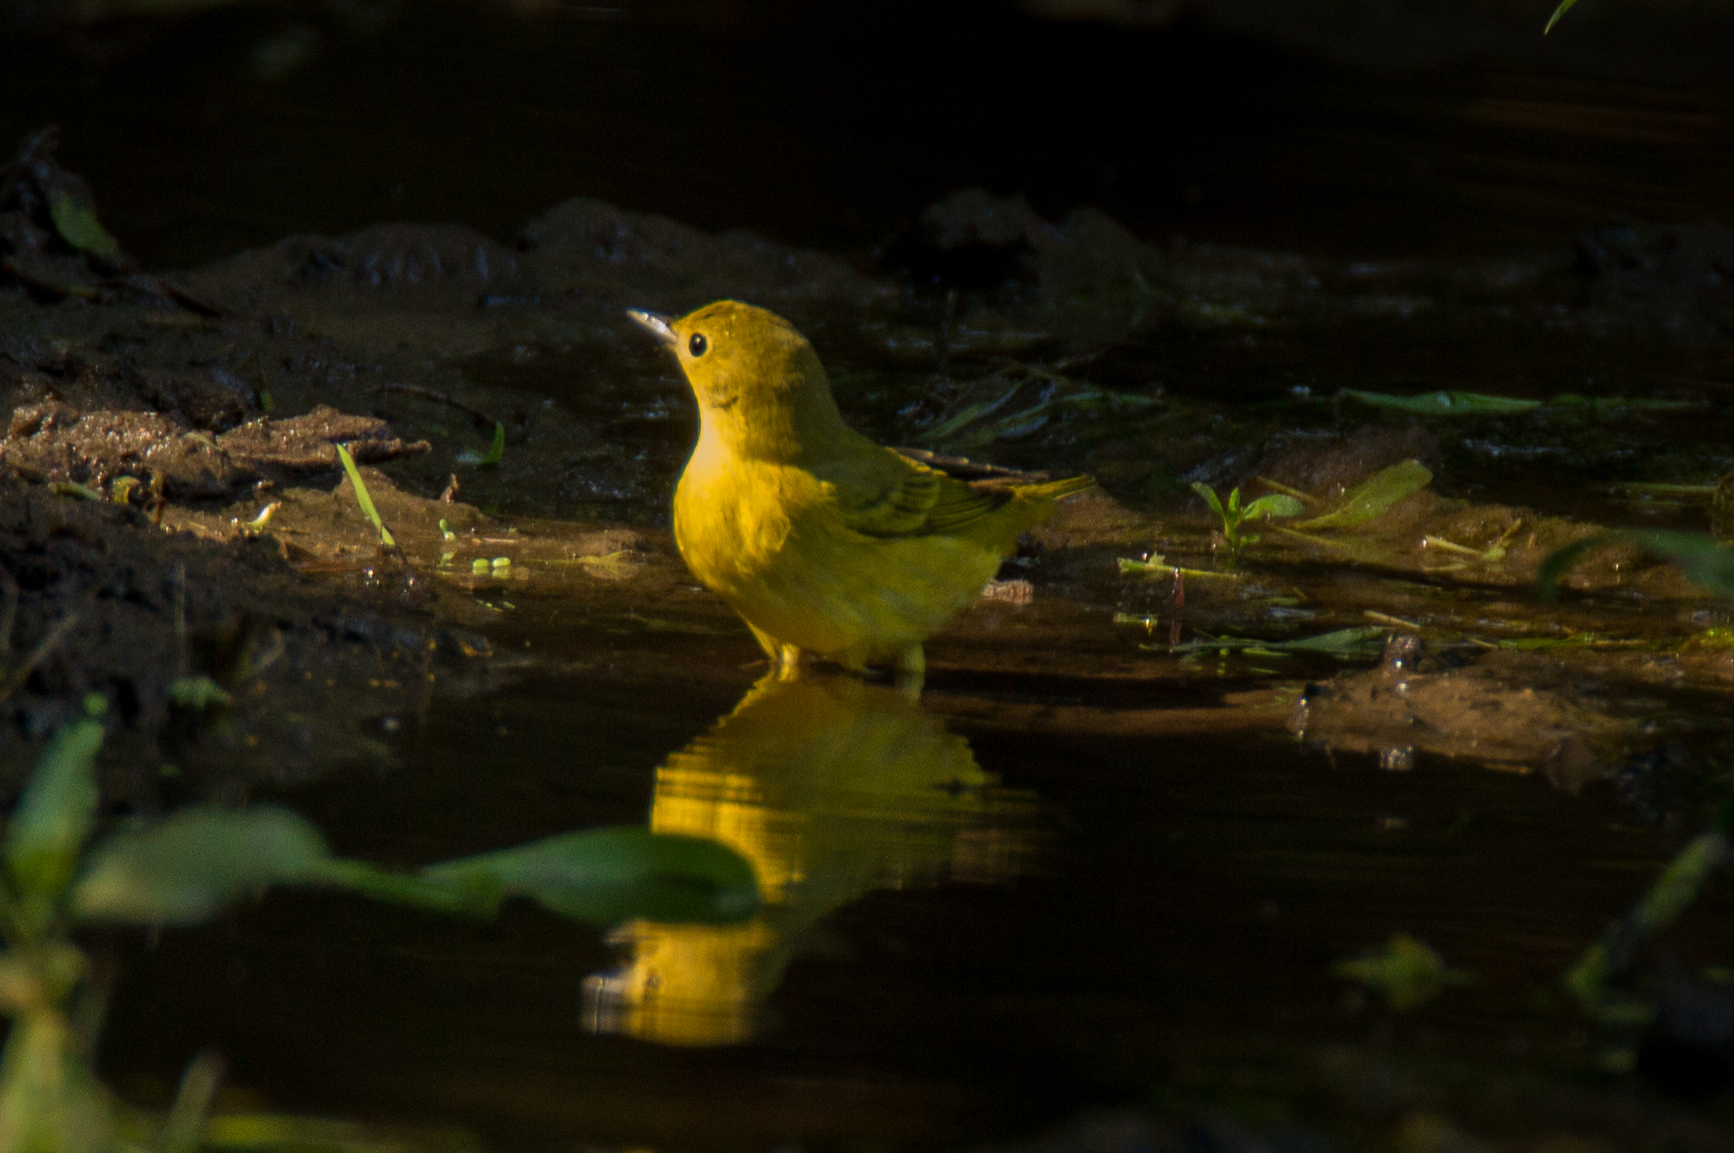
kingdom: Animalia
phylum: Chordata
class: Aves
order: Passeriformes
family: Parulidae
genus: Setophaga
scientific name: Setophaga petechia
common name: Yellow warbler
